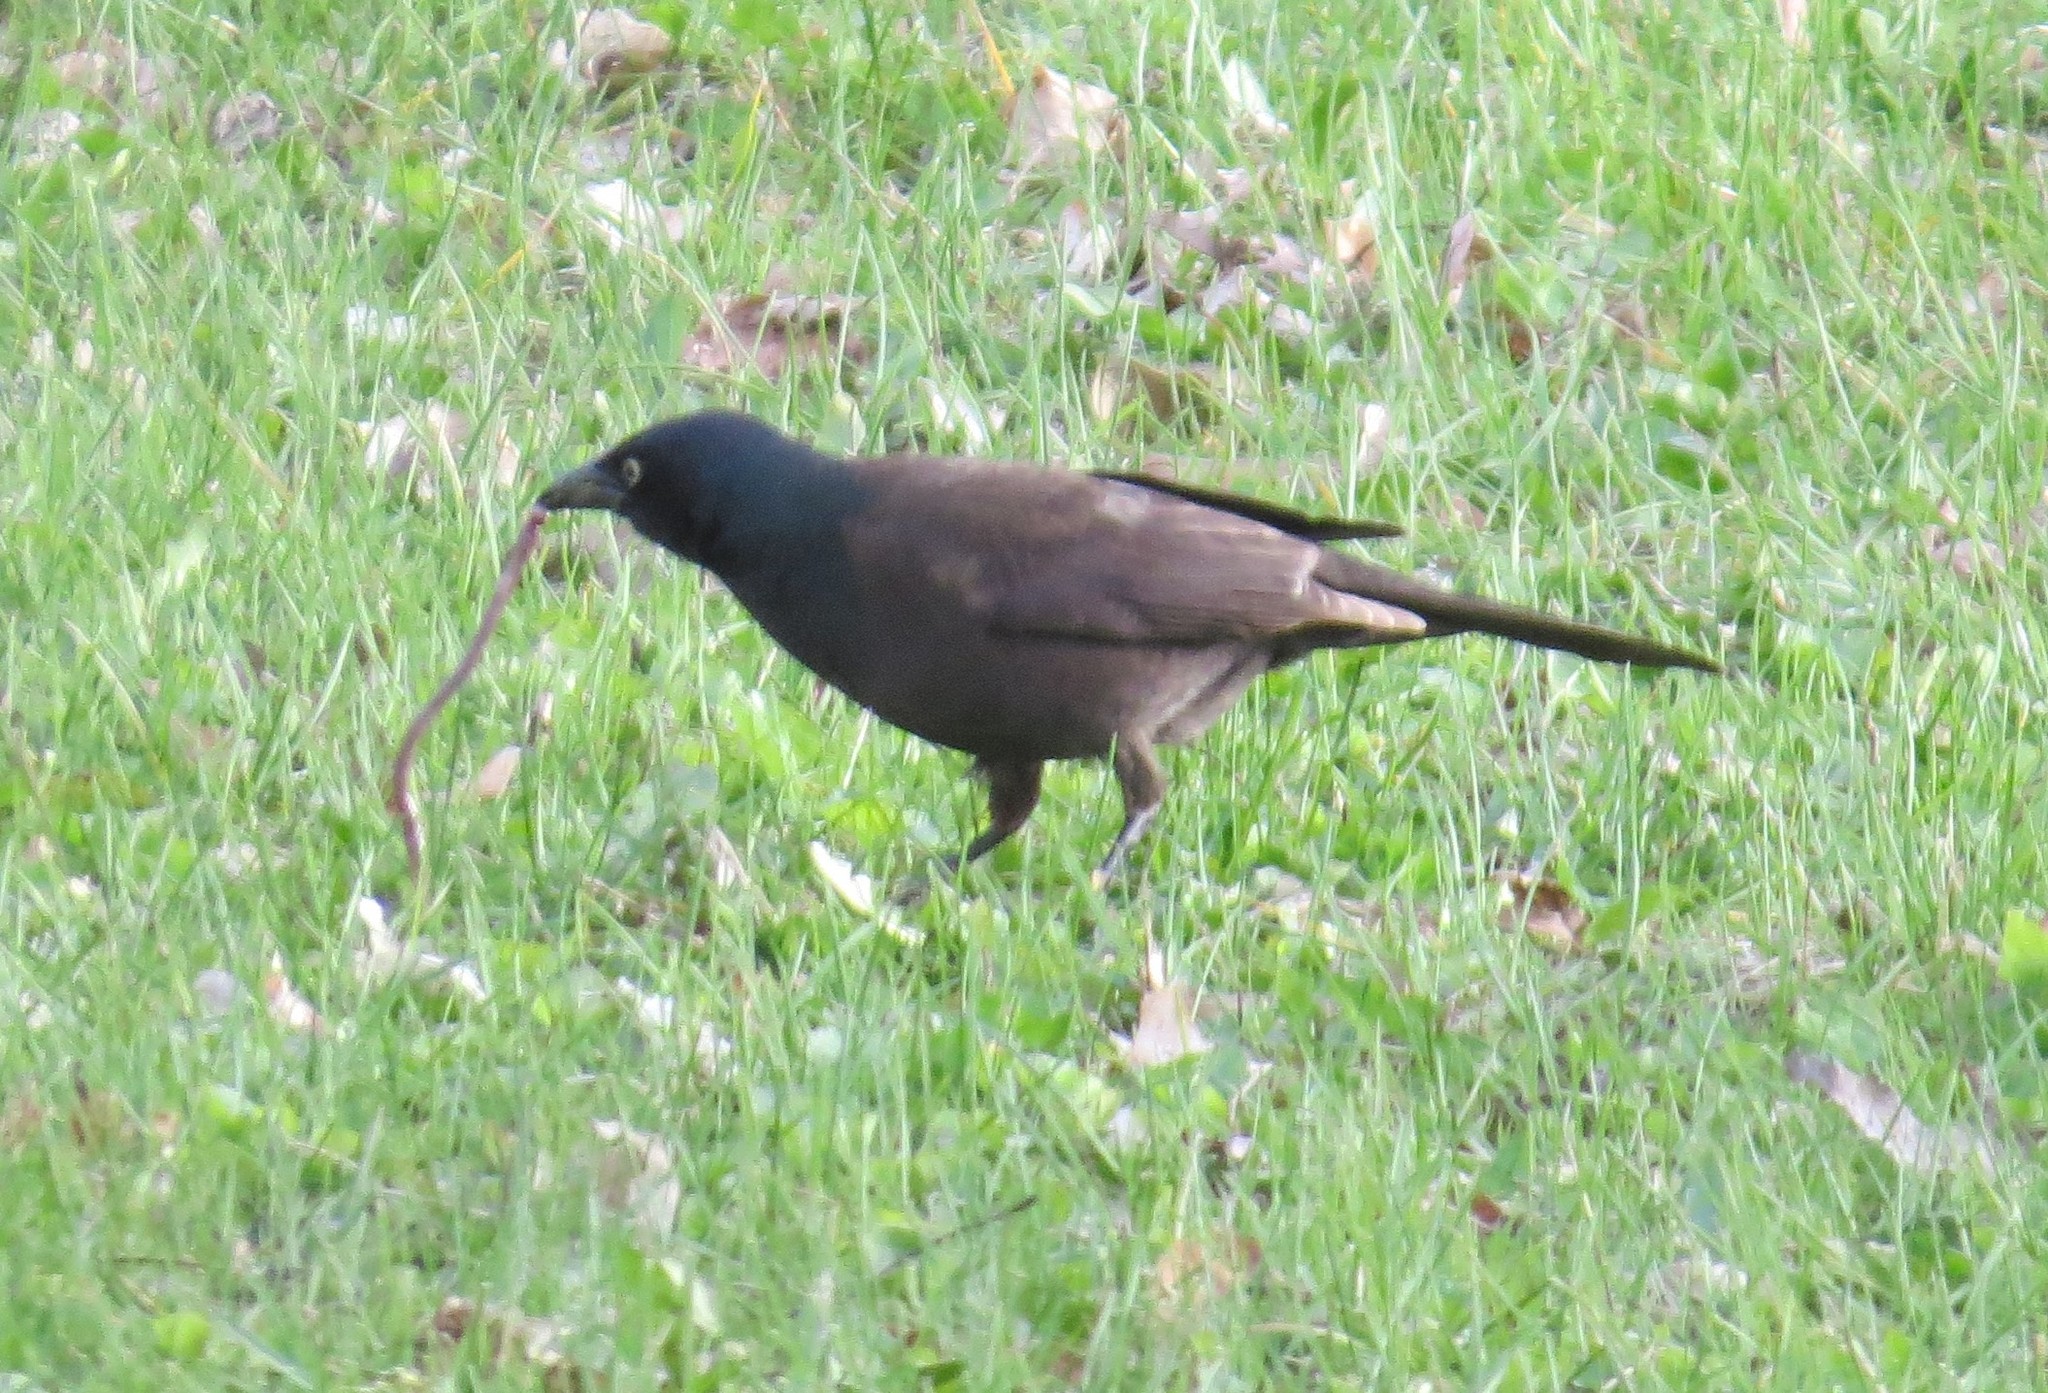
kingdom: Animalia
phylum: Chordata
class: Aves
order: Passeriformes
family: Icteridae
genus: Quiscalus
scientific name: Quiscalus quiscula
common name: Common grackle
